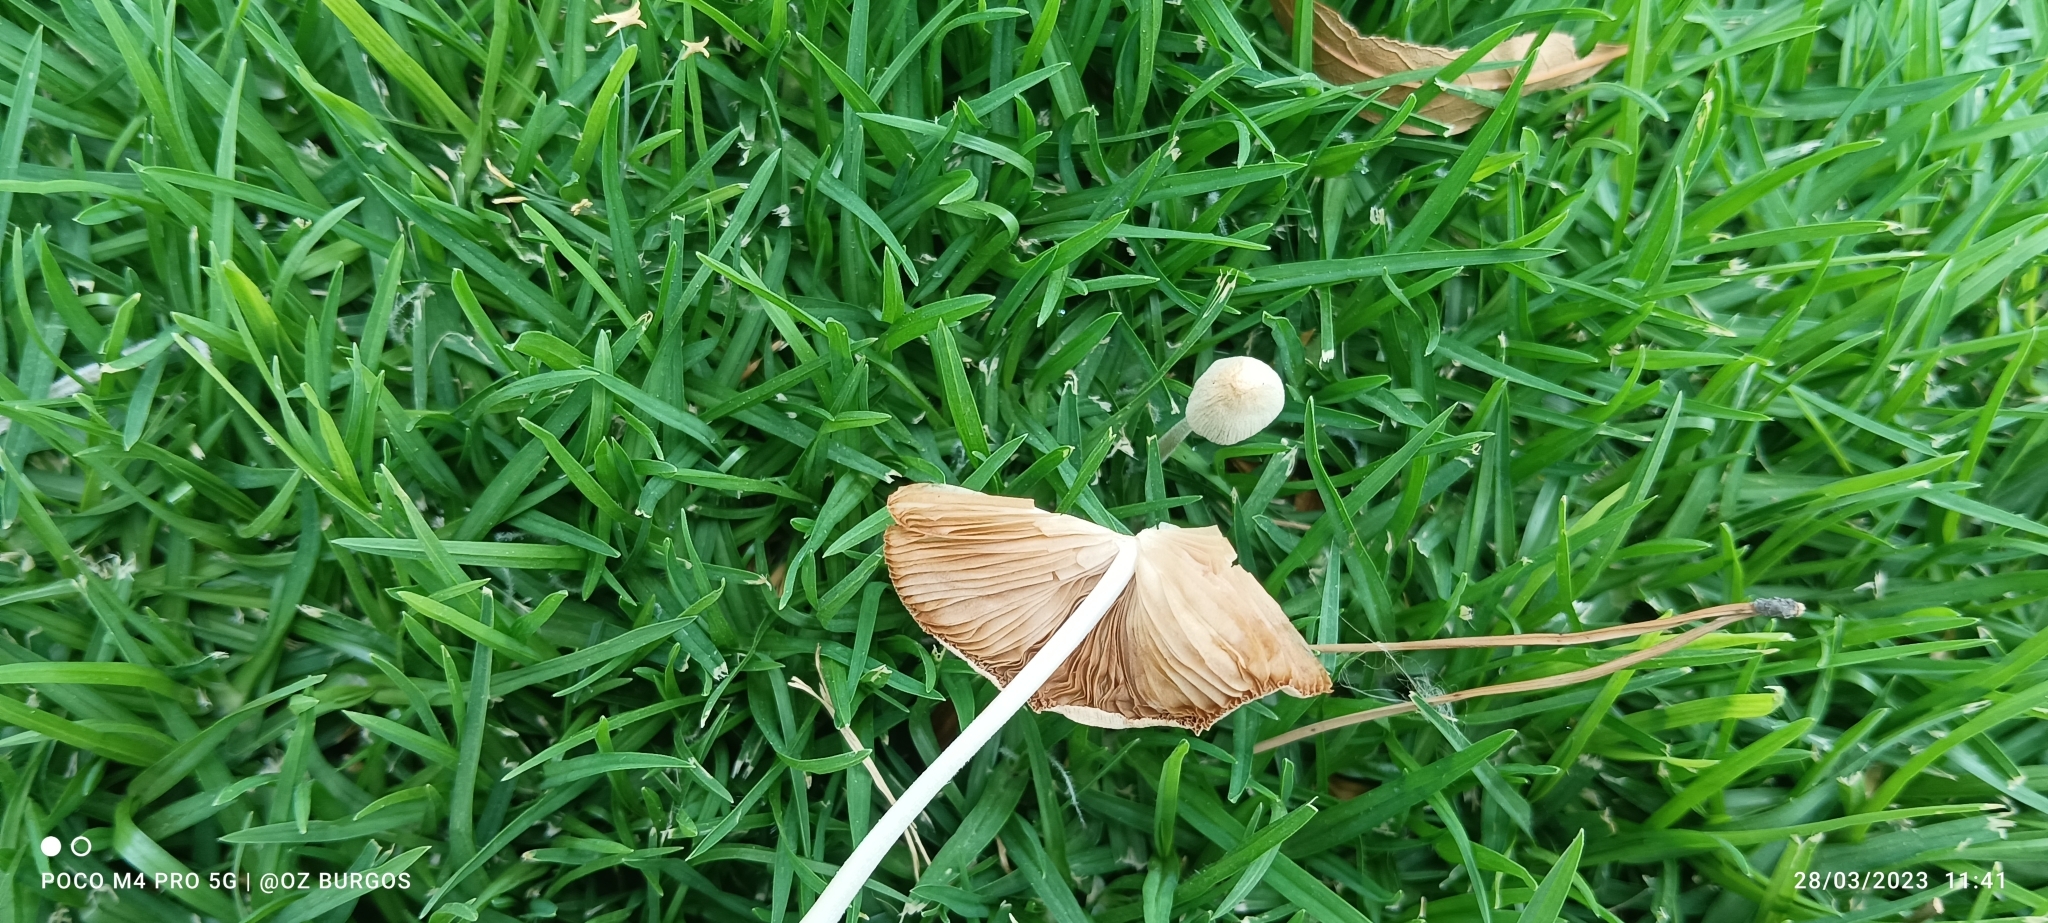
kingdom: Fungi
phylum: Basidiomycota
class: Agaricomycetes
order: Agaricales
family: Bolbitiaceae
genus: Conocybe
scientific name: Conocybe apala
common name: Milky conecap
